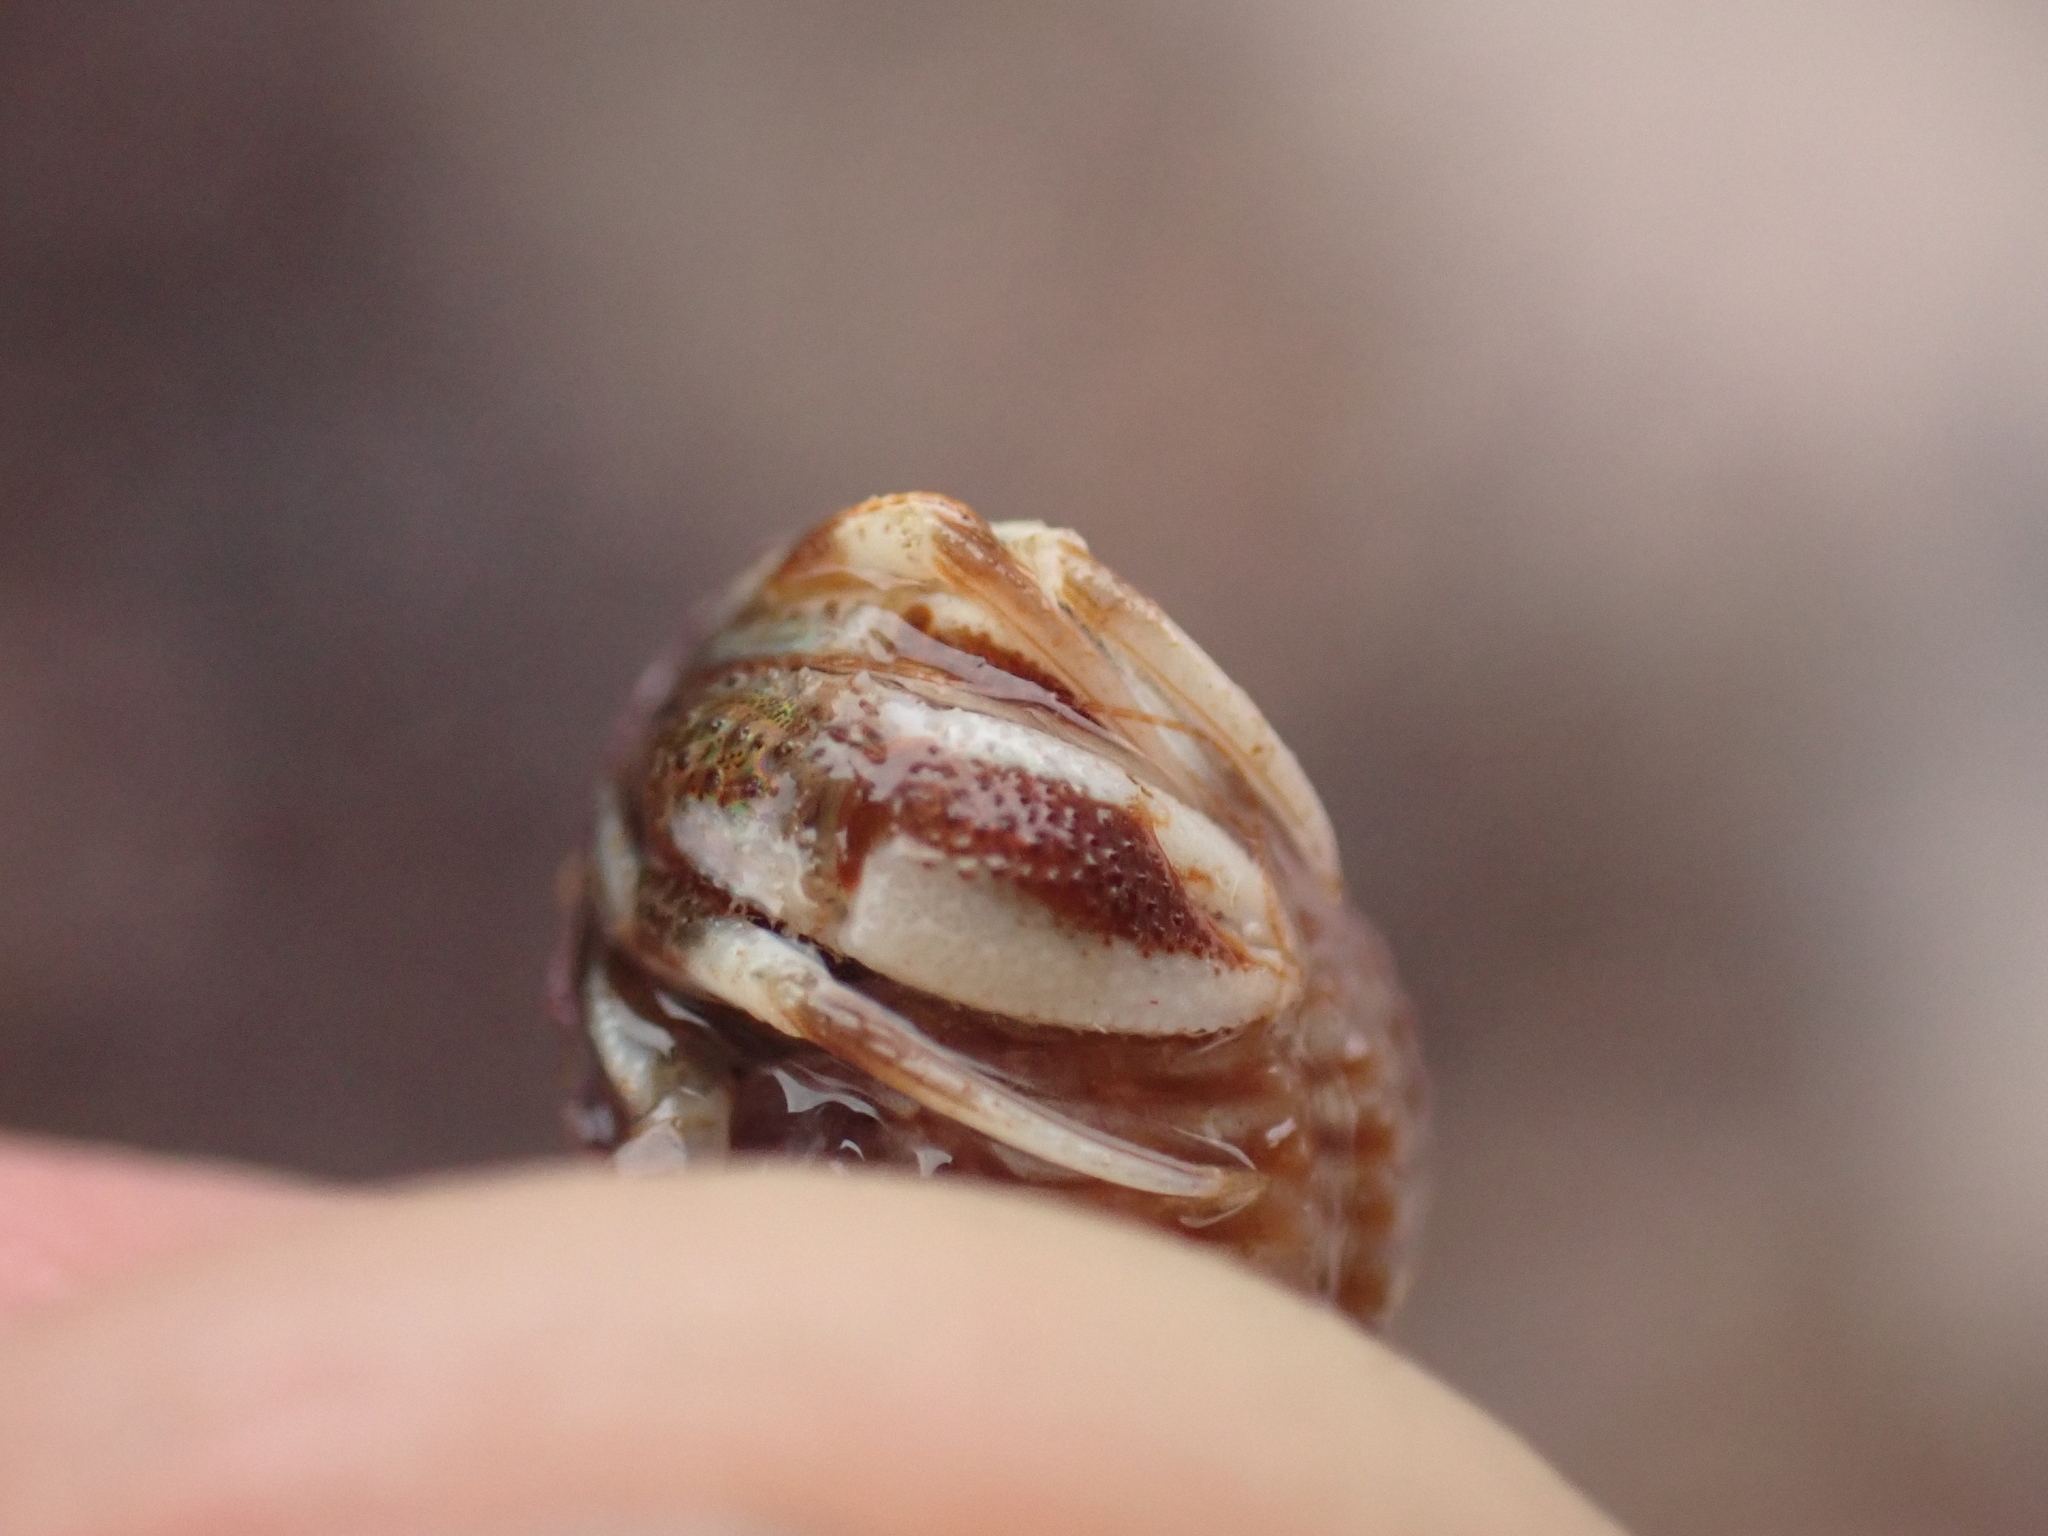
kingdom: Animalia
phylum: Arthropoda
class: Malacostraca
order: Decapoda
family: Paguridae
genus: Pagurus
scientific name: Pagurus acadianus
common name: Acadian hermit crab
